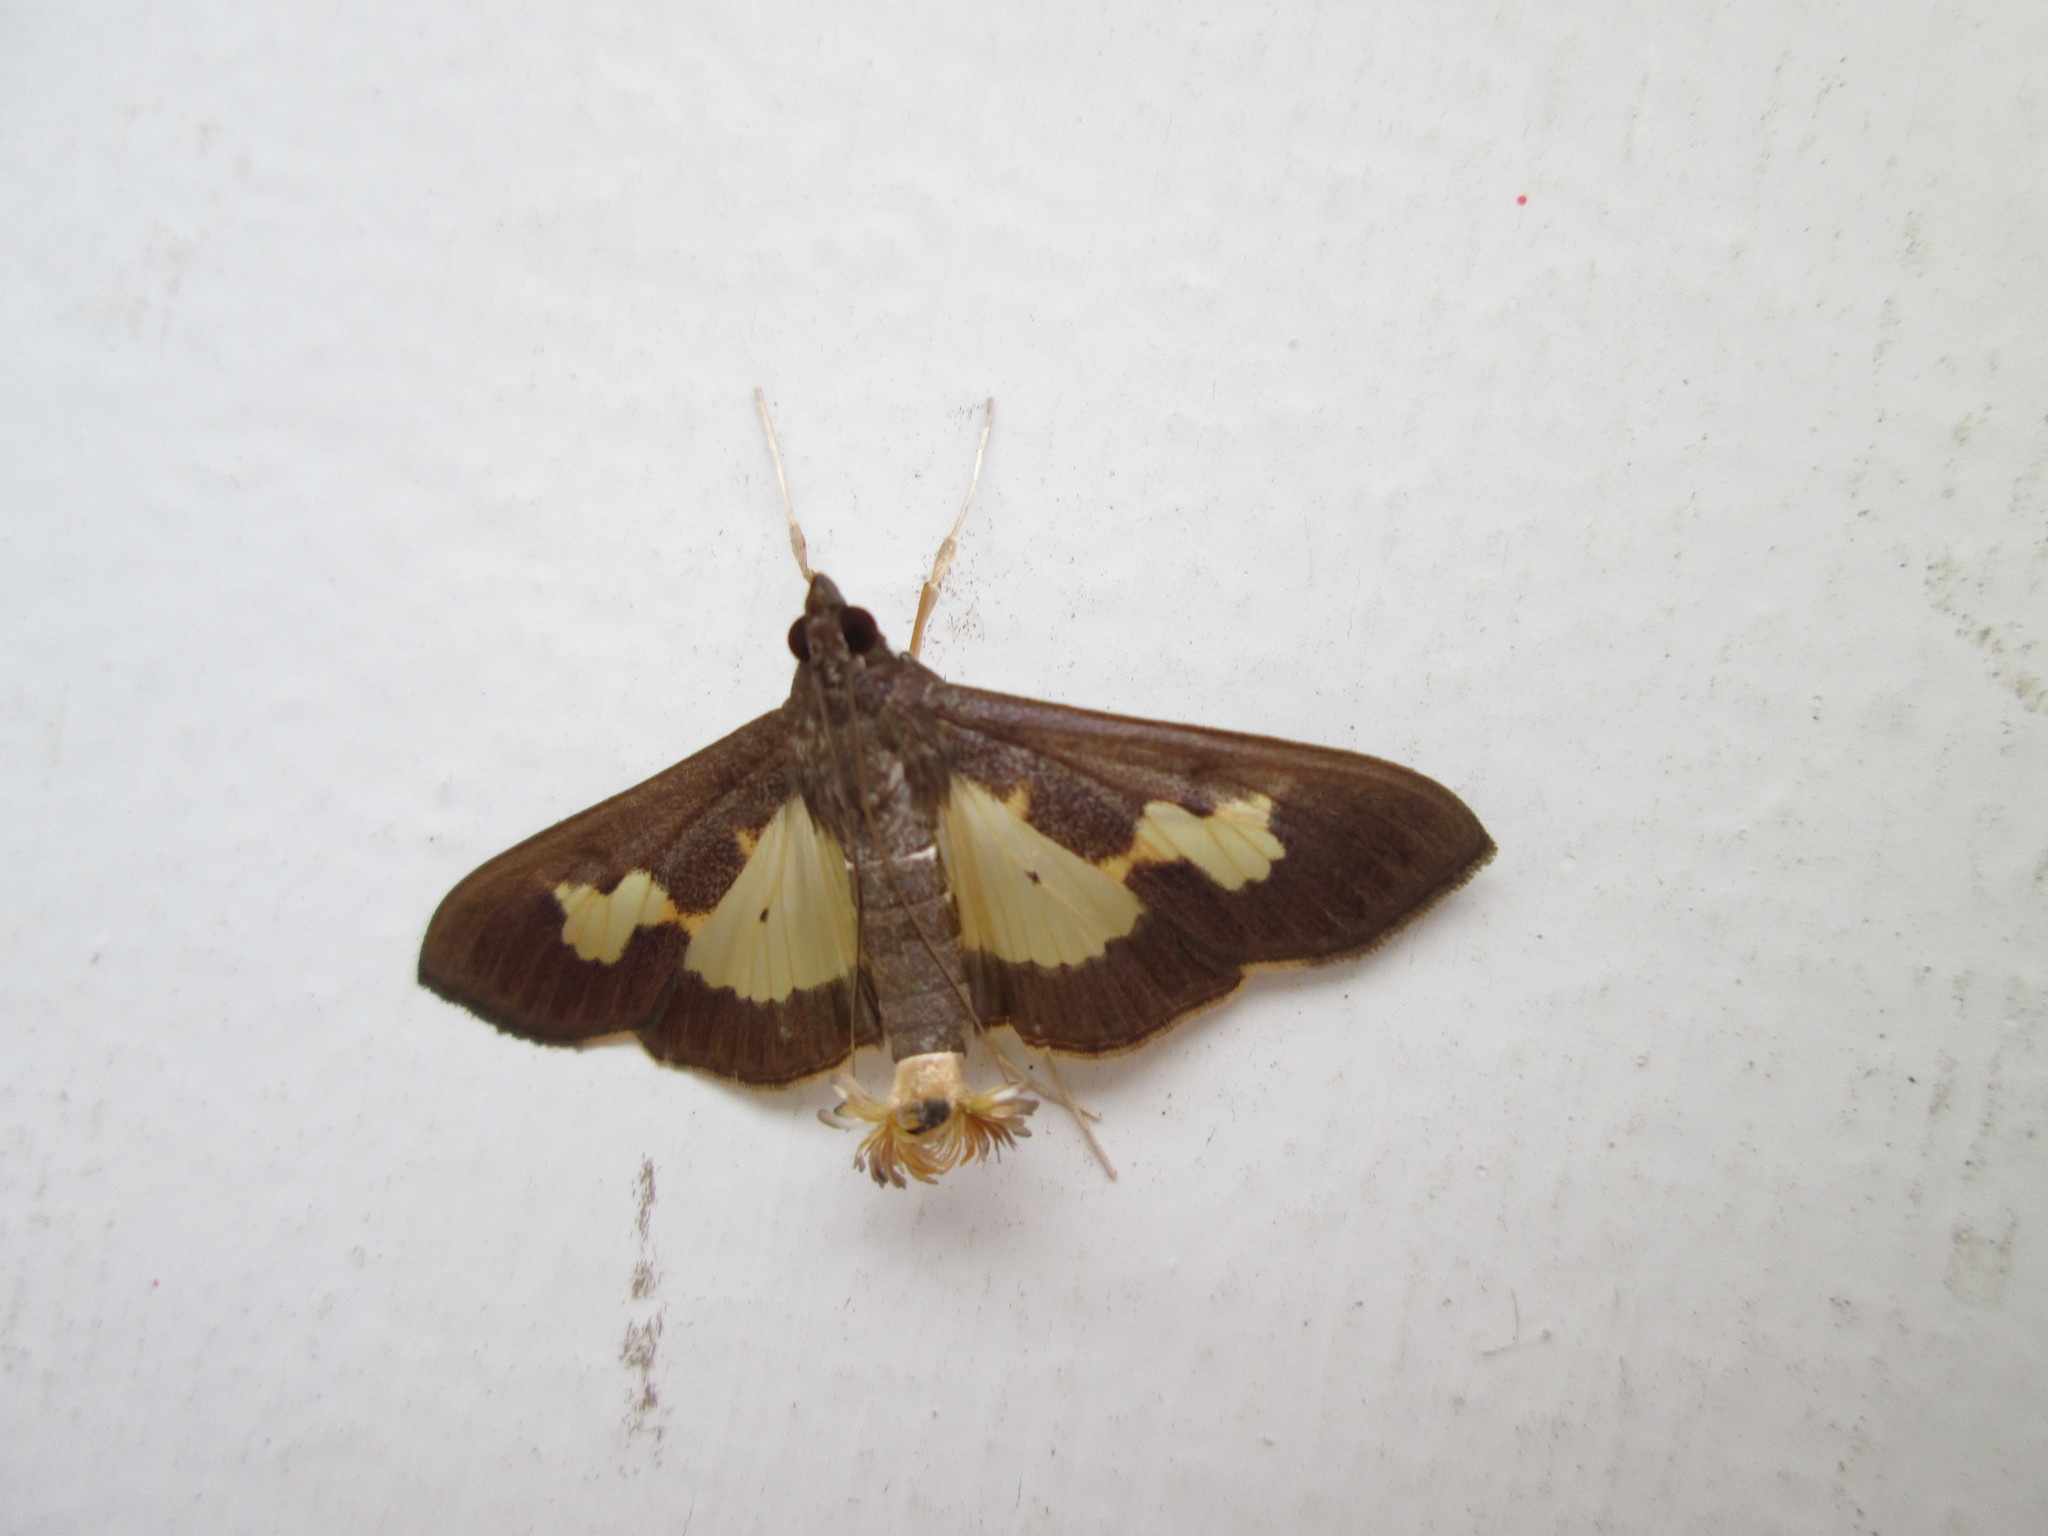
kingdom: Animalia
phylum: Arthropoda
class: Insecta
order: Lepidoptera
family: Crambidae
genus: Cryptographis
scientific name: Cryptographis nitidalis
